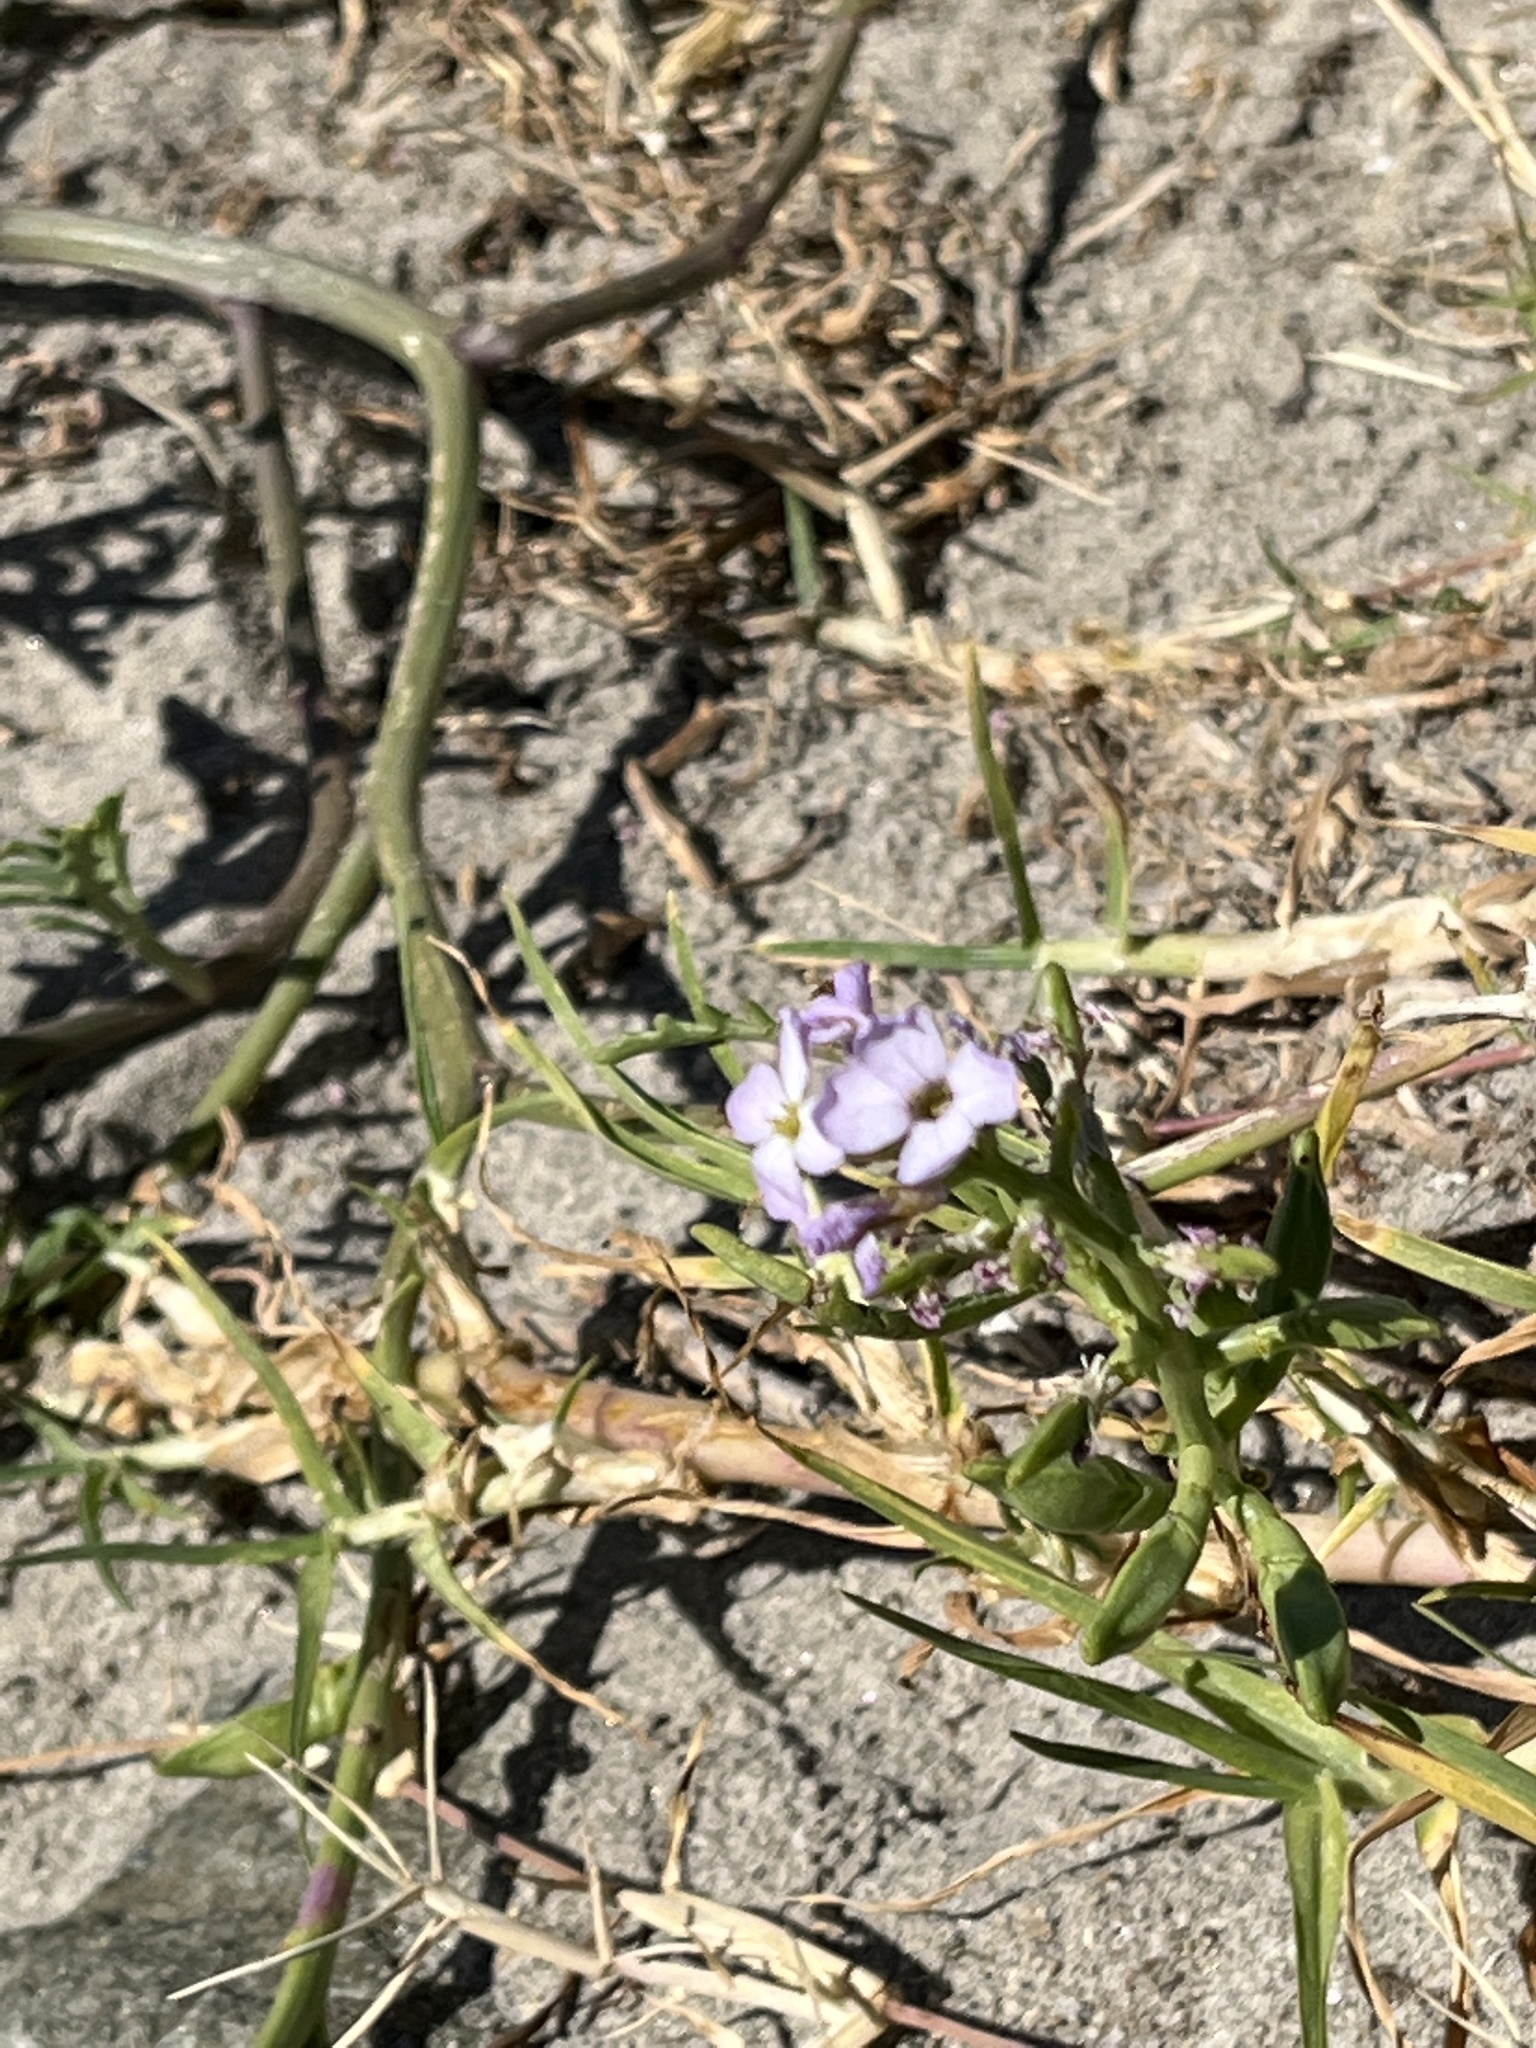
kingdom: Plantae
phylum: Tracheophyta
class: Magnoliopsida
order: Brassicales
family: Brassicaceae
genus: Cakile
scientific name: Cakile maritima
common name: Sea rocket
